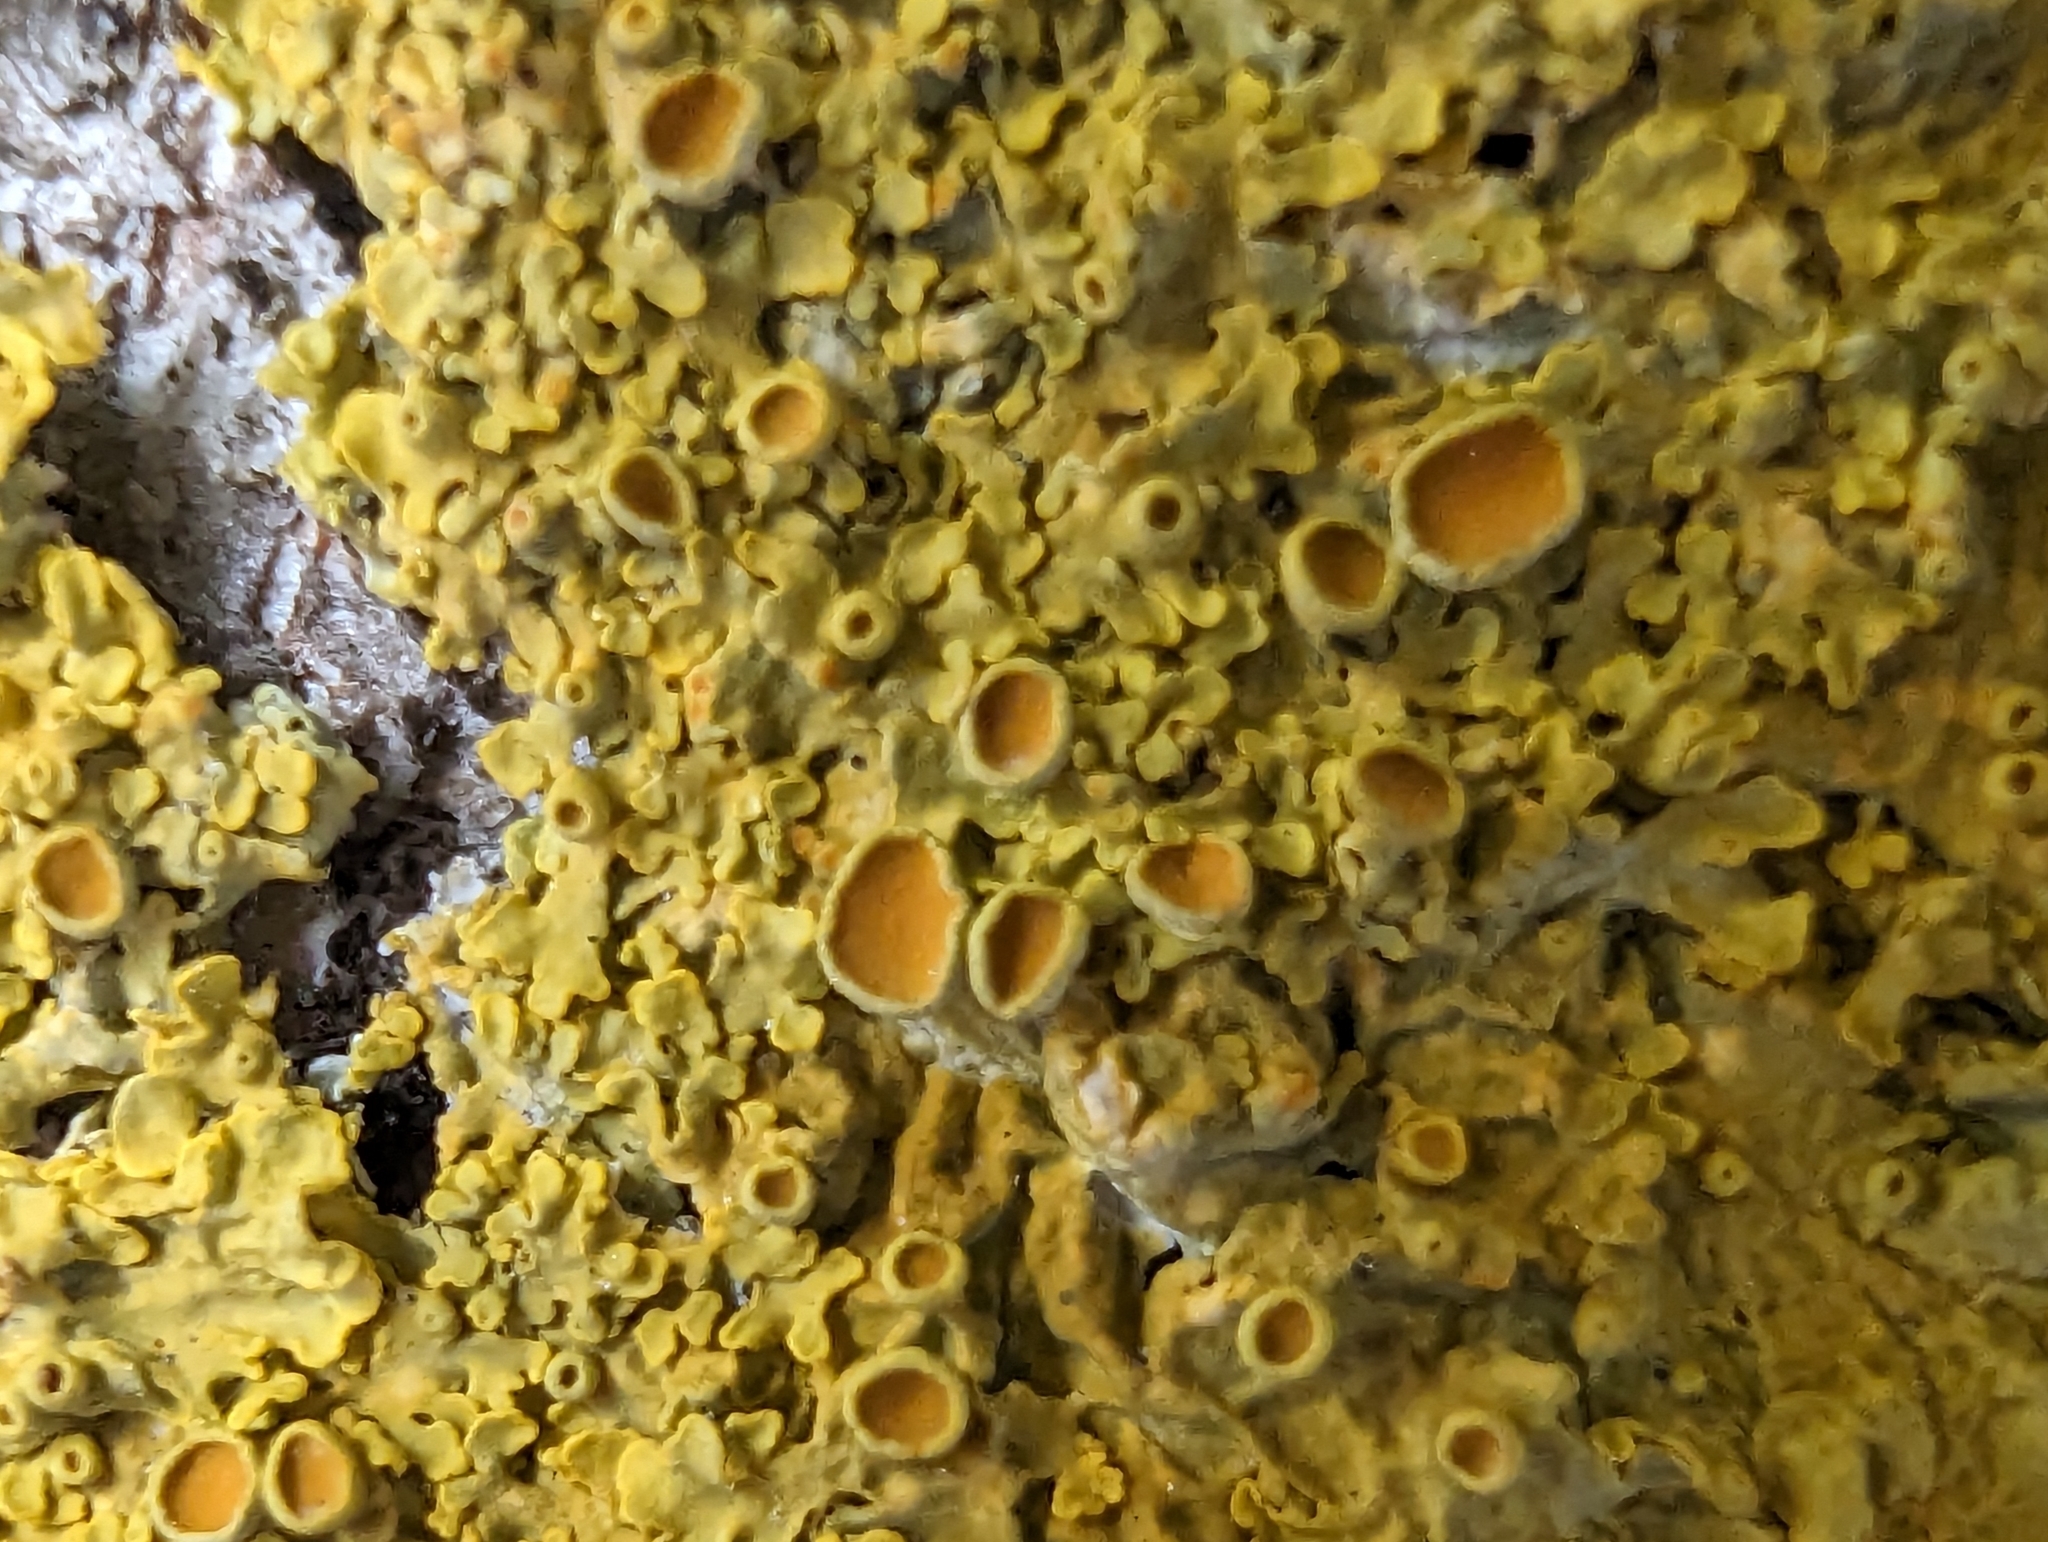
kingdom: Fungi
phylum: Ascomycota
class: Lecanoromycetes
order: Teloschistales
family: Teloschistaceae
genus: Xanthoria
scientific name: Xanthoria parietina
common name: Common orange lichen
